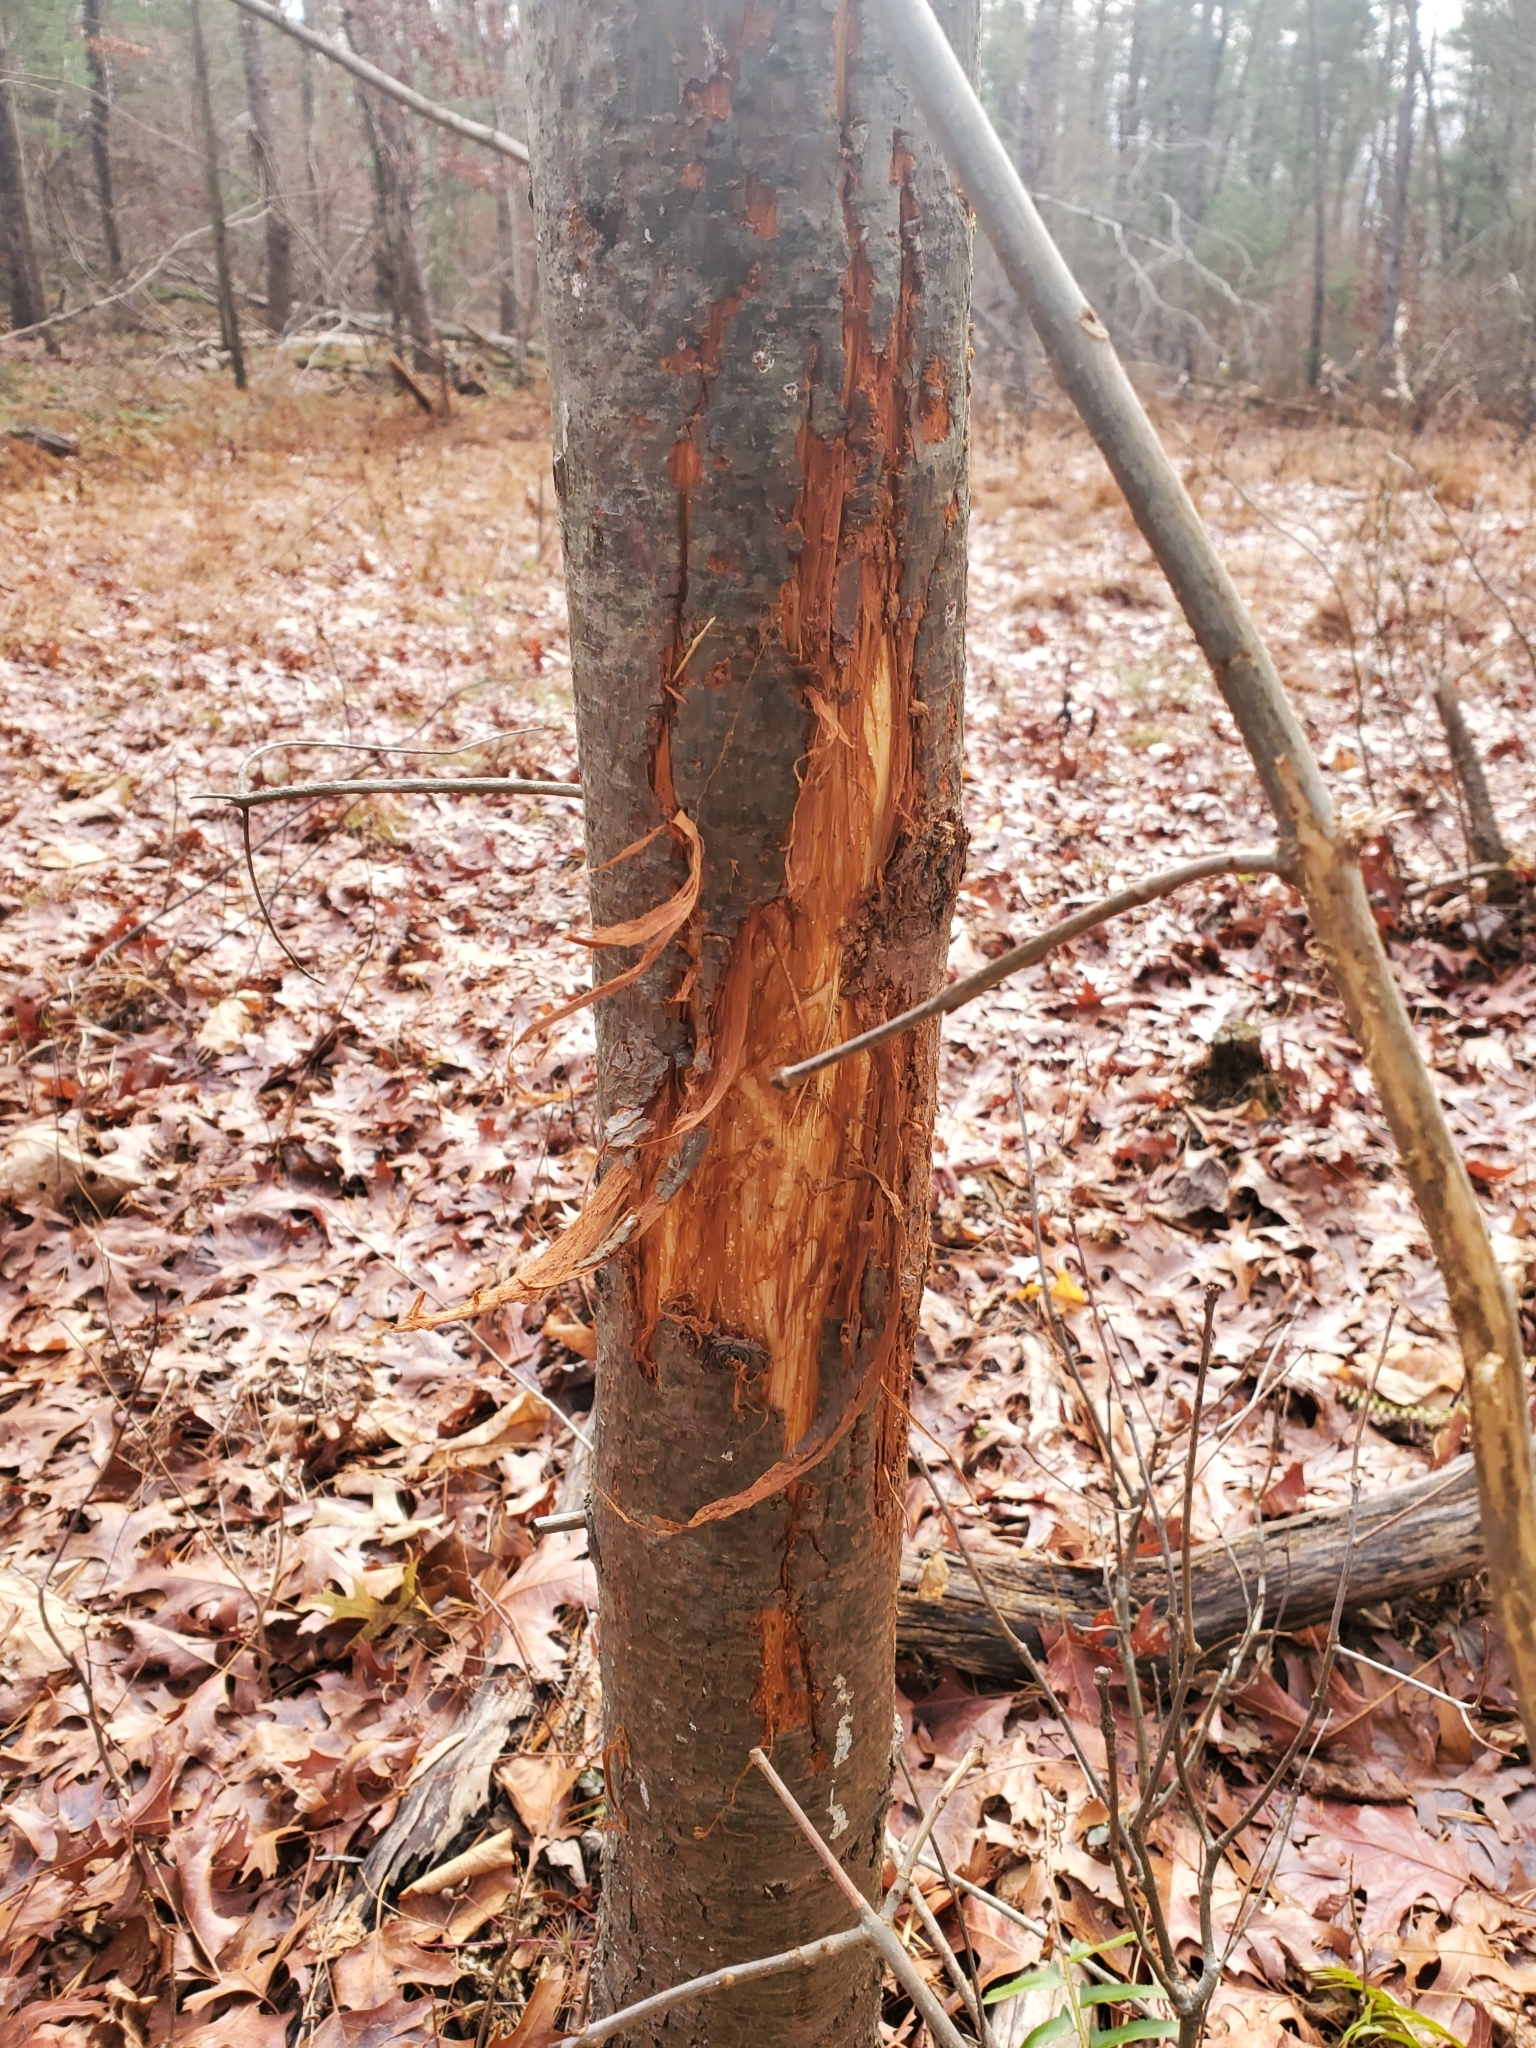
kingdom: Animalia
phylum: Chordata
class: Mammalia
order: Artiodactyla
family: Cervidae
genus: Odocoileus
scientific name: Odocoileus virginianus
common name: White-tailed deer
